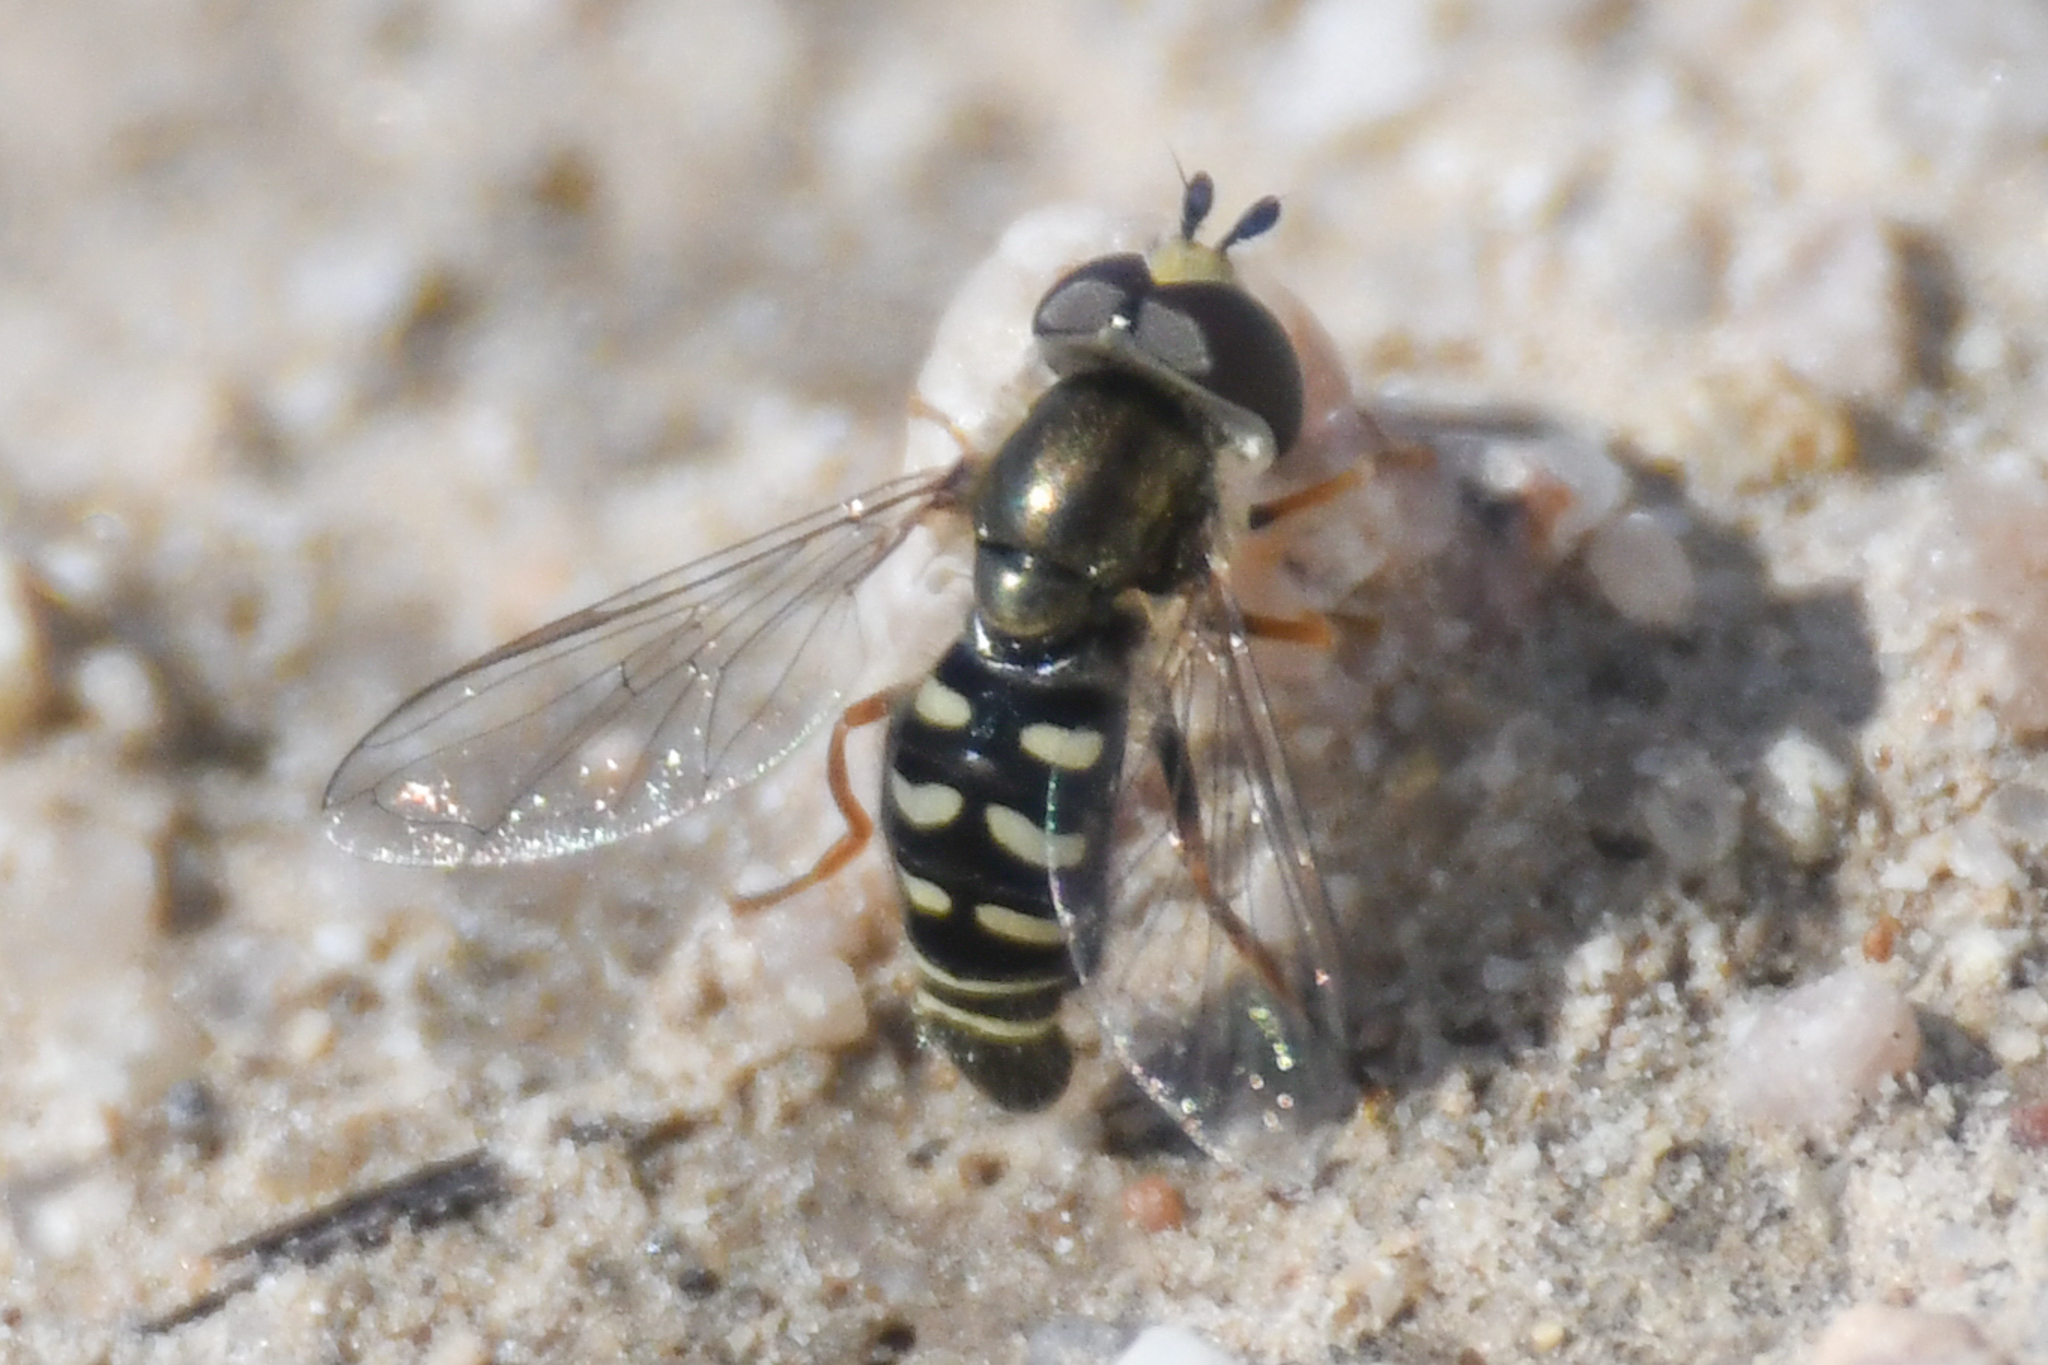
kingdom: Animalia
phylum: Arthropoda
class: Insecta
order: Diptera
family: Syrphidae
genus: Eupeodes
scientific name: Eupeodes volucris
